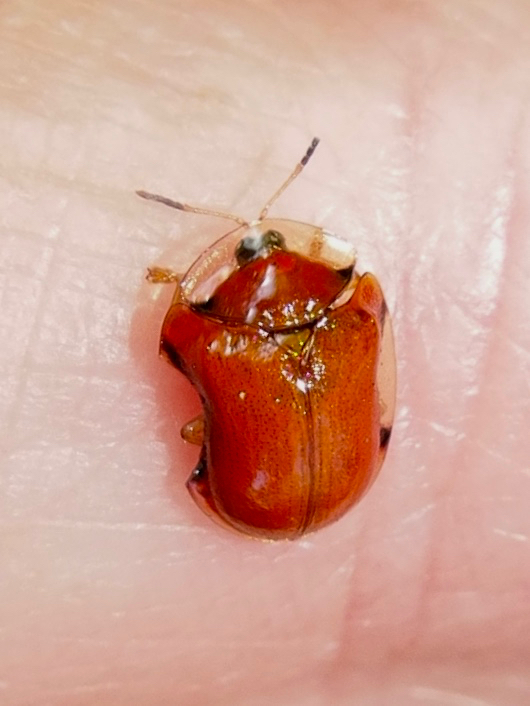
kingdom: Animalia
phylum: Arthropoda
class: Insecta
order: Coleoptera
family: Chrysomelidae
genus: Charidotella
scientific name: Charidotella emarginata
